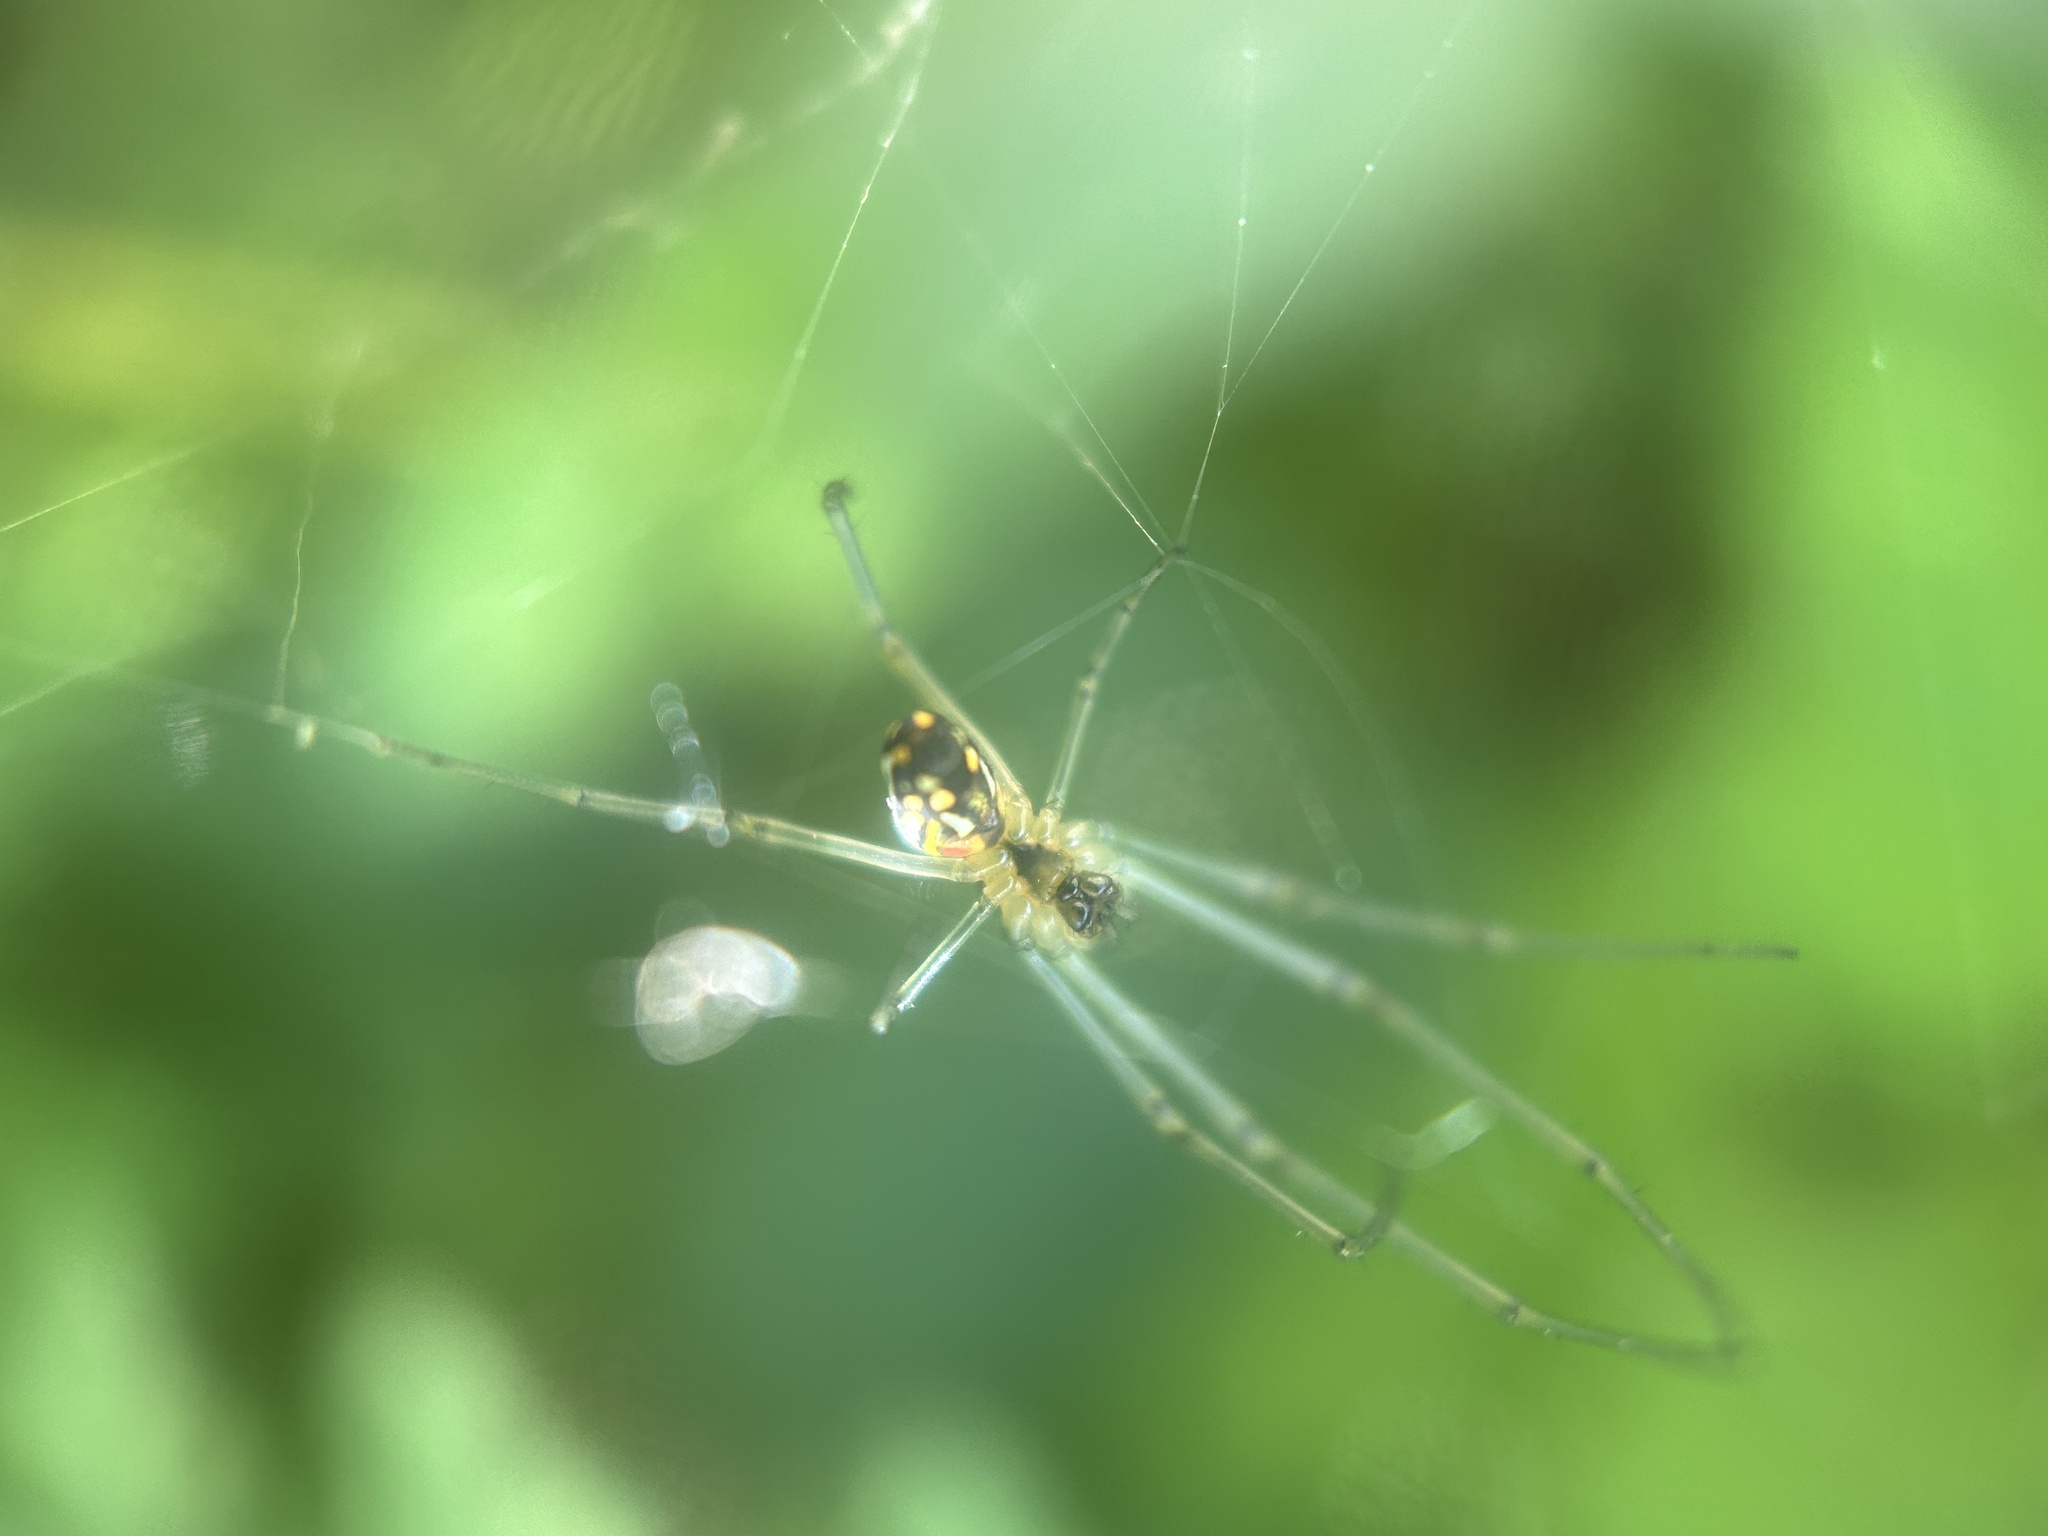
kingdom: Animalia
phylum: Arthropoda
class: Arachnida
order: Araneae
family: Tetragnathidae
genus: Leucauge
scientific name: Leucauge argyra
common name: Longjawed orb weavers
